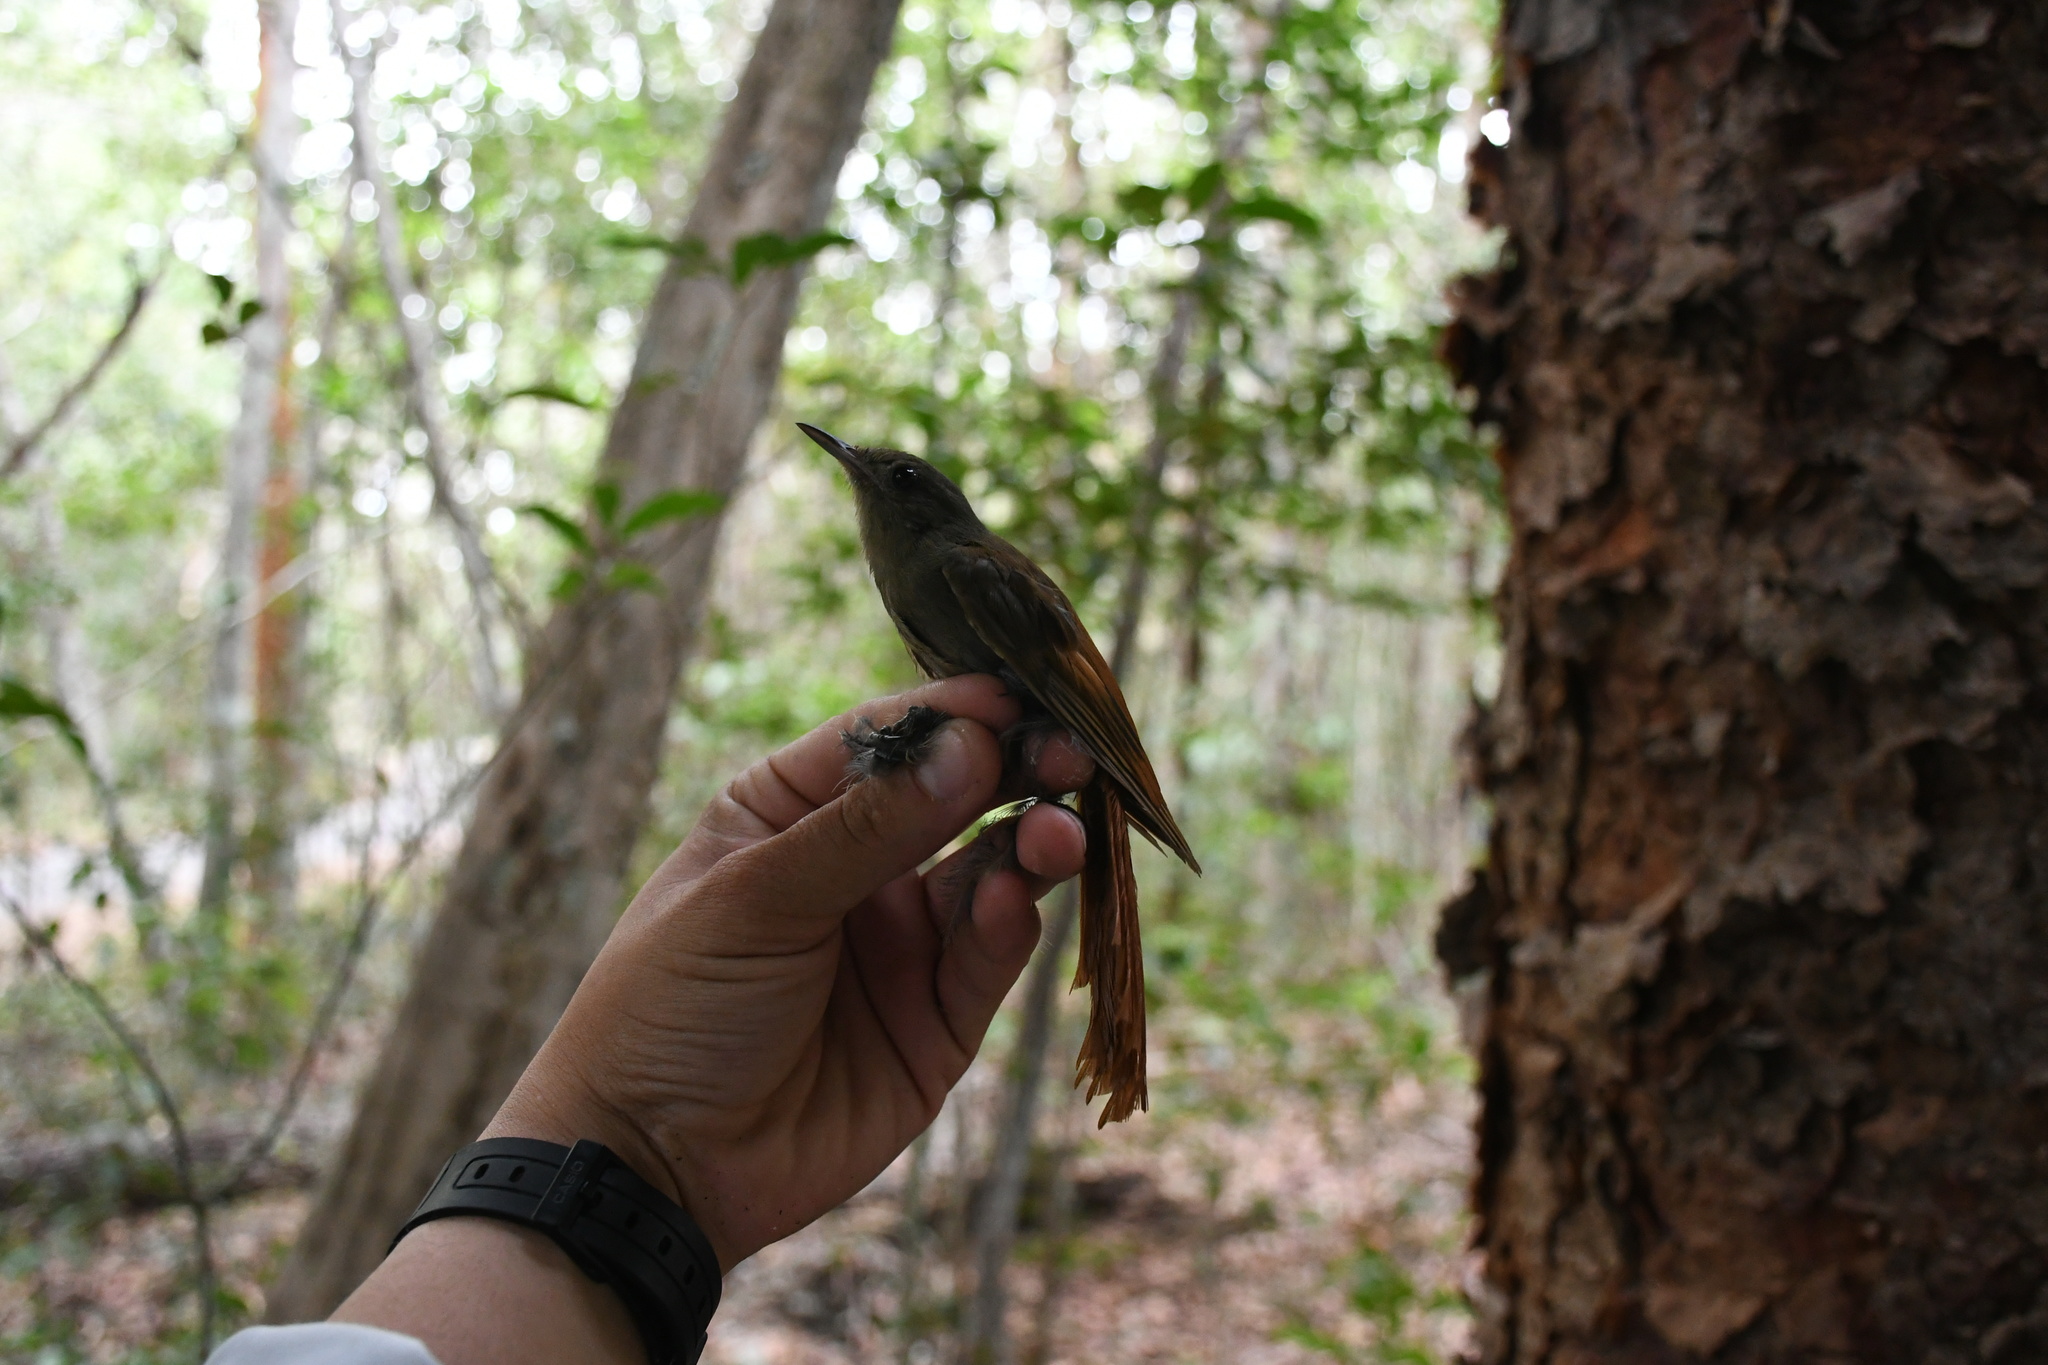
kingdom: Animalia
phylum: Chordata
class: Aves
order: Passeriformes
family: Furnariidae
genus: Sittasomus
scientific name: Sittasomus griseicapillus
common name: Olivaceous woodcreeper
